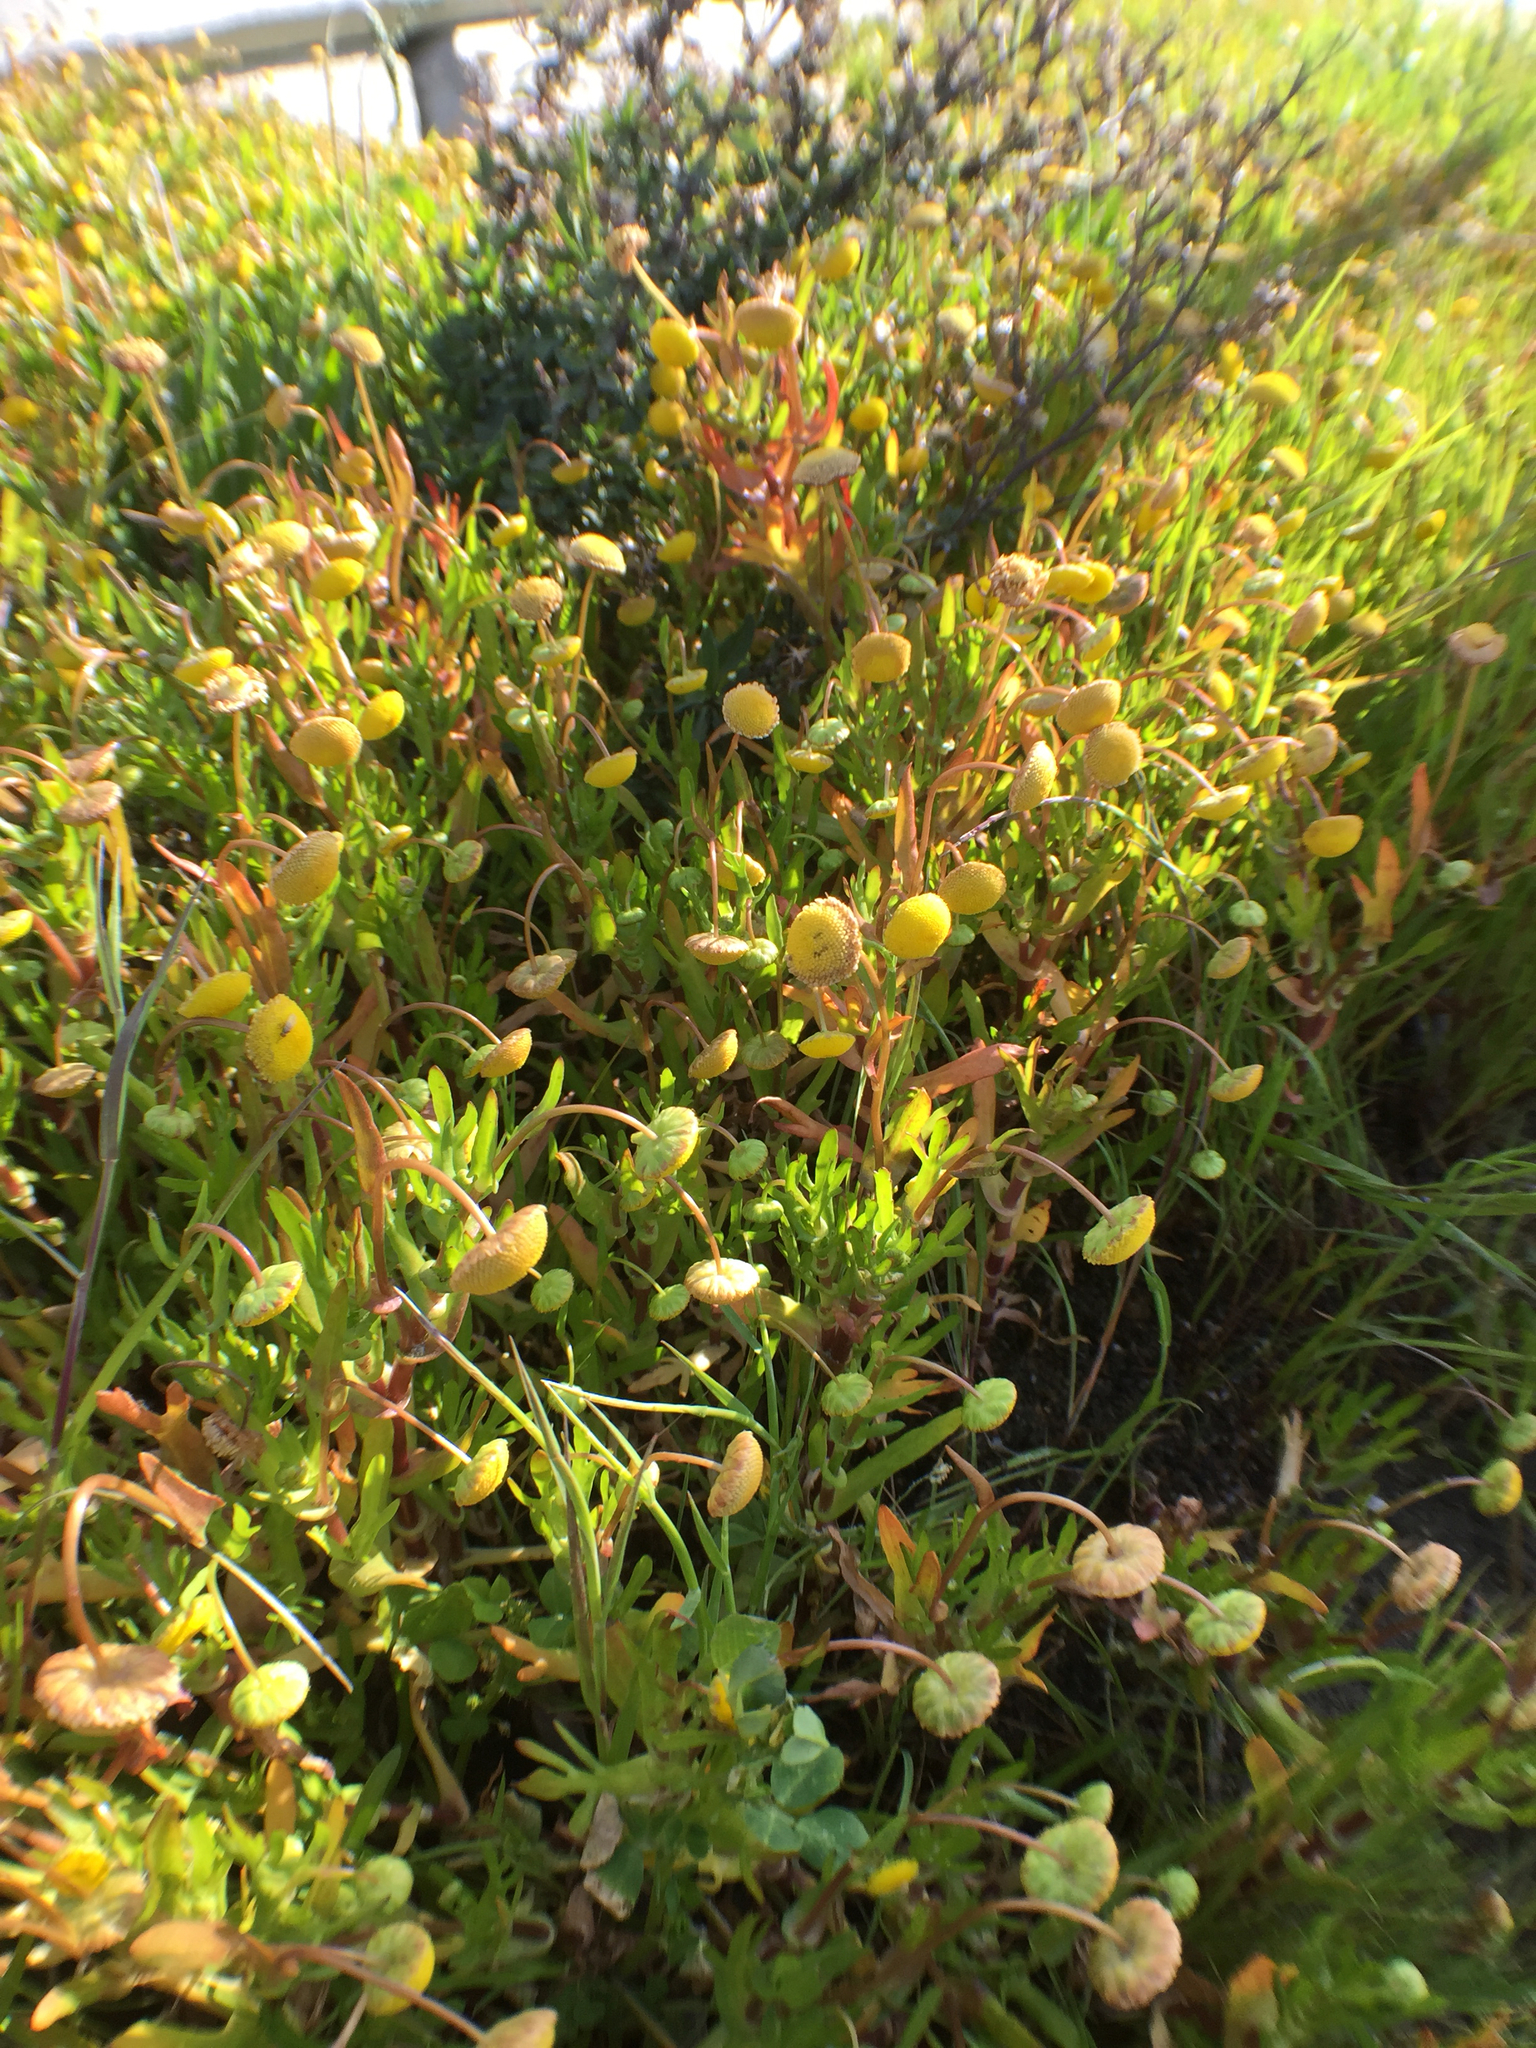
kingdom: Plantae
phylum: Tracheophyta
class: Magnoliopsida
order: Asterales
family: Asteraceae
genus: Cotula
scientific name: Cotula coronopifolia
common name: Buttonweed
